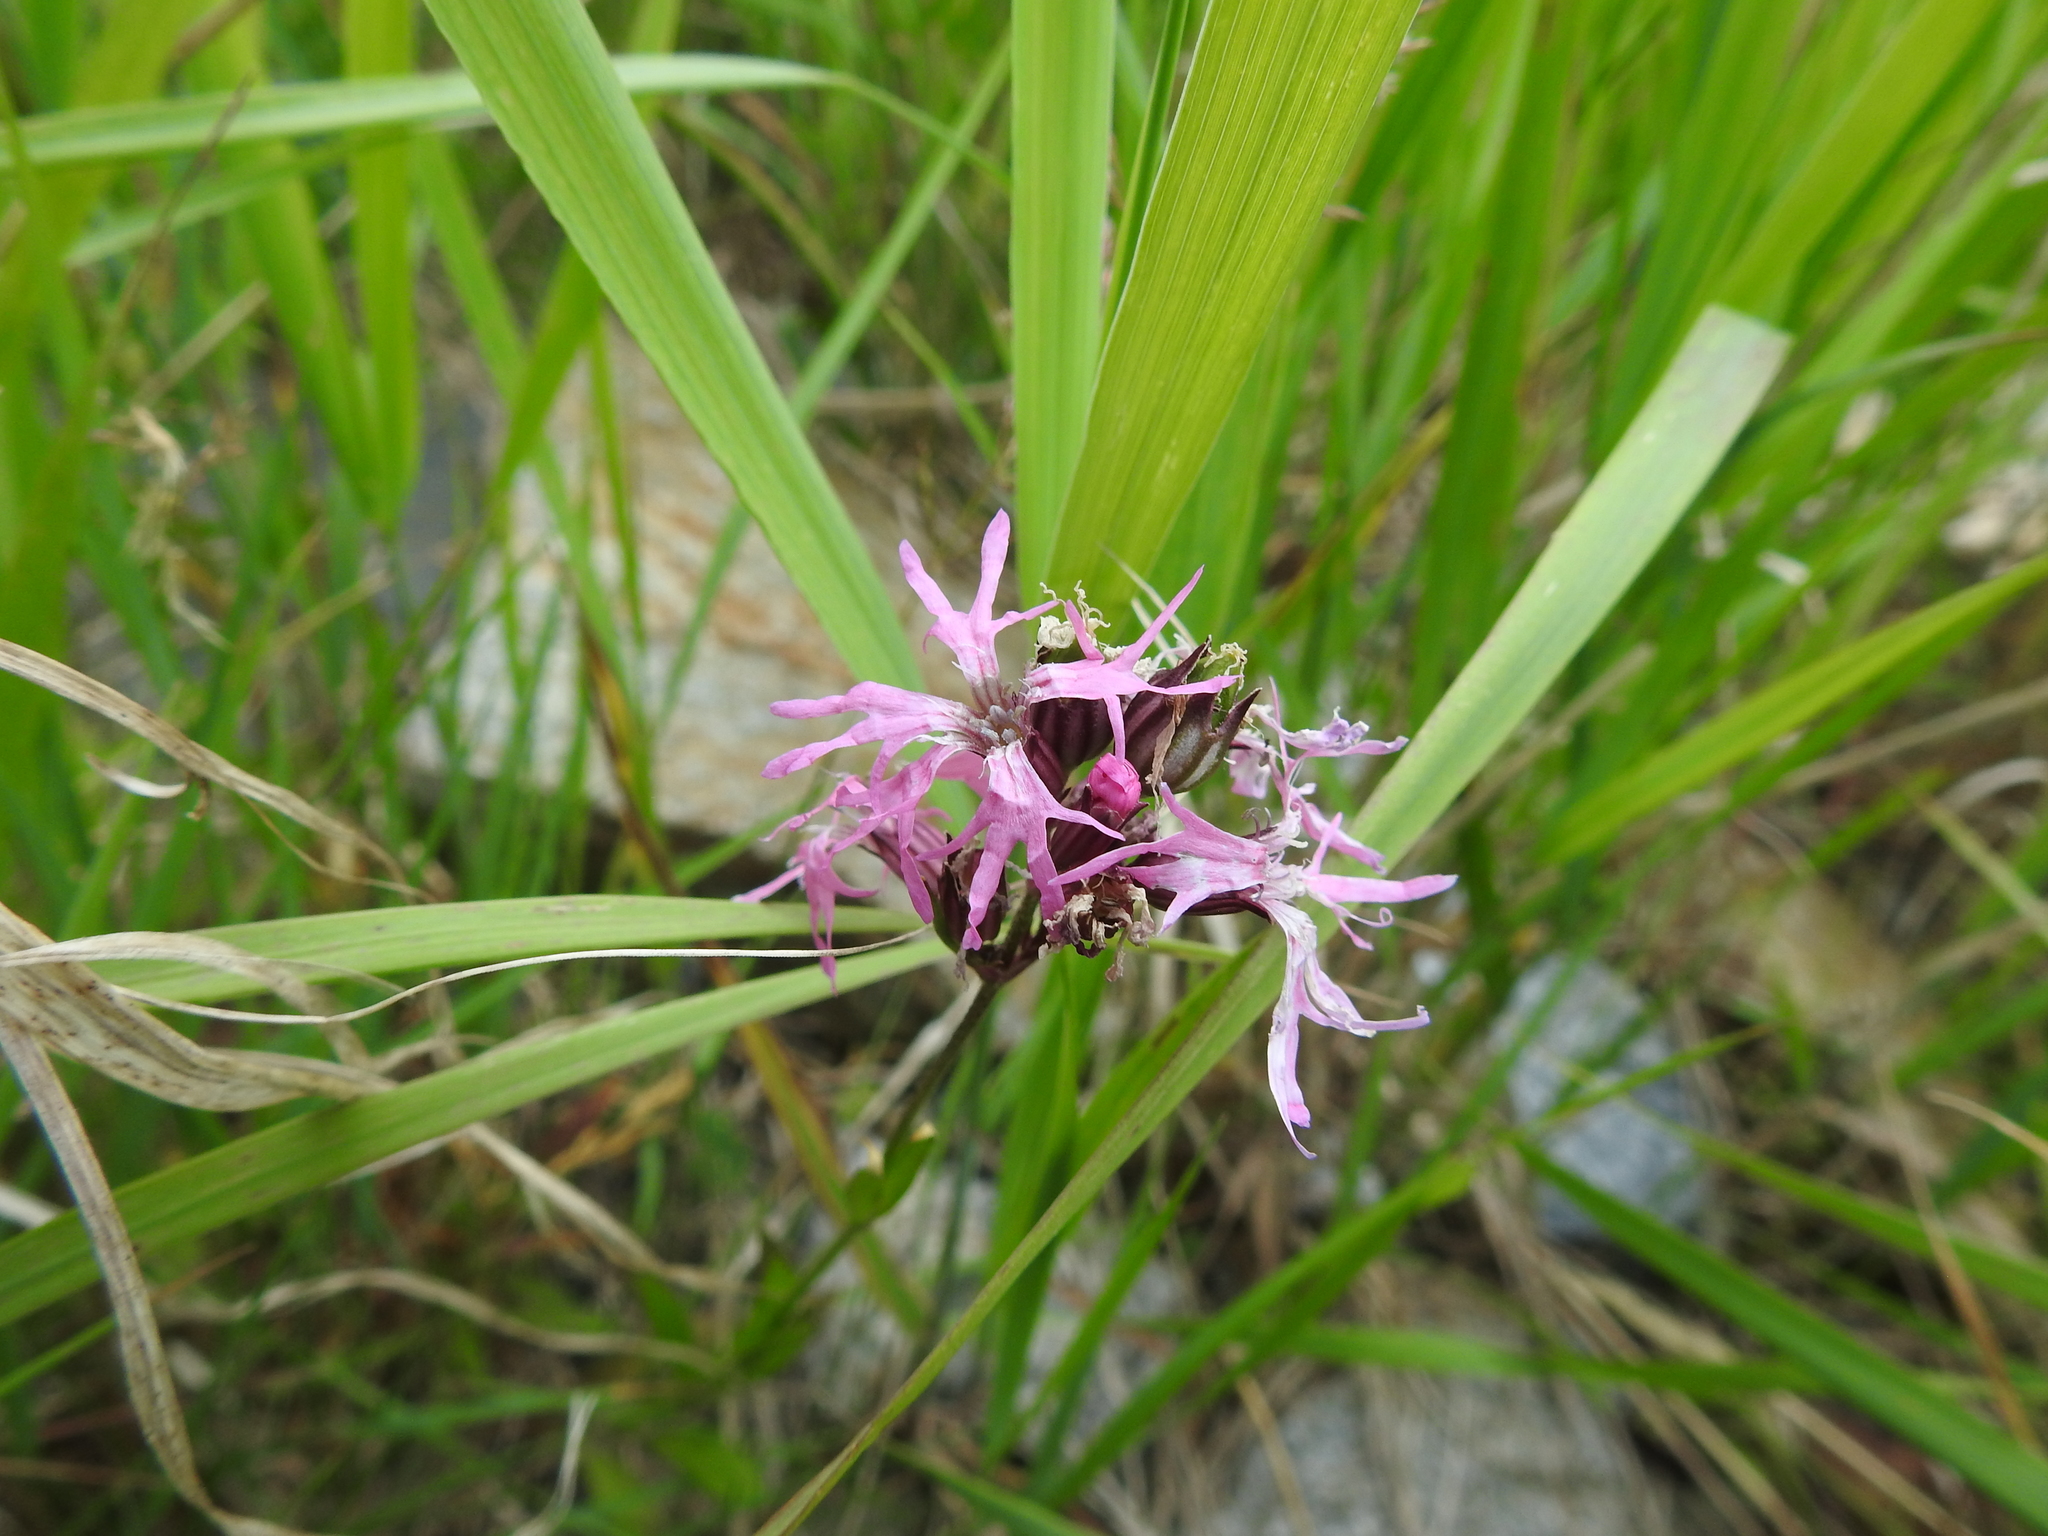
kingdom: Plantae
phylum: Tracheophyta
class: Magnoliopsida
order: Caryophyllales
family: Caryophyllaceae
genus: Silene
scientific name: Silene flos-cuculi
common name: Ragged-robin
